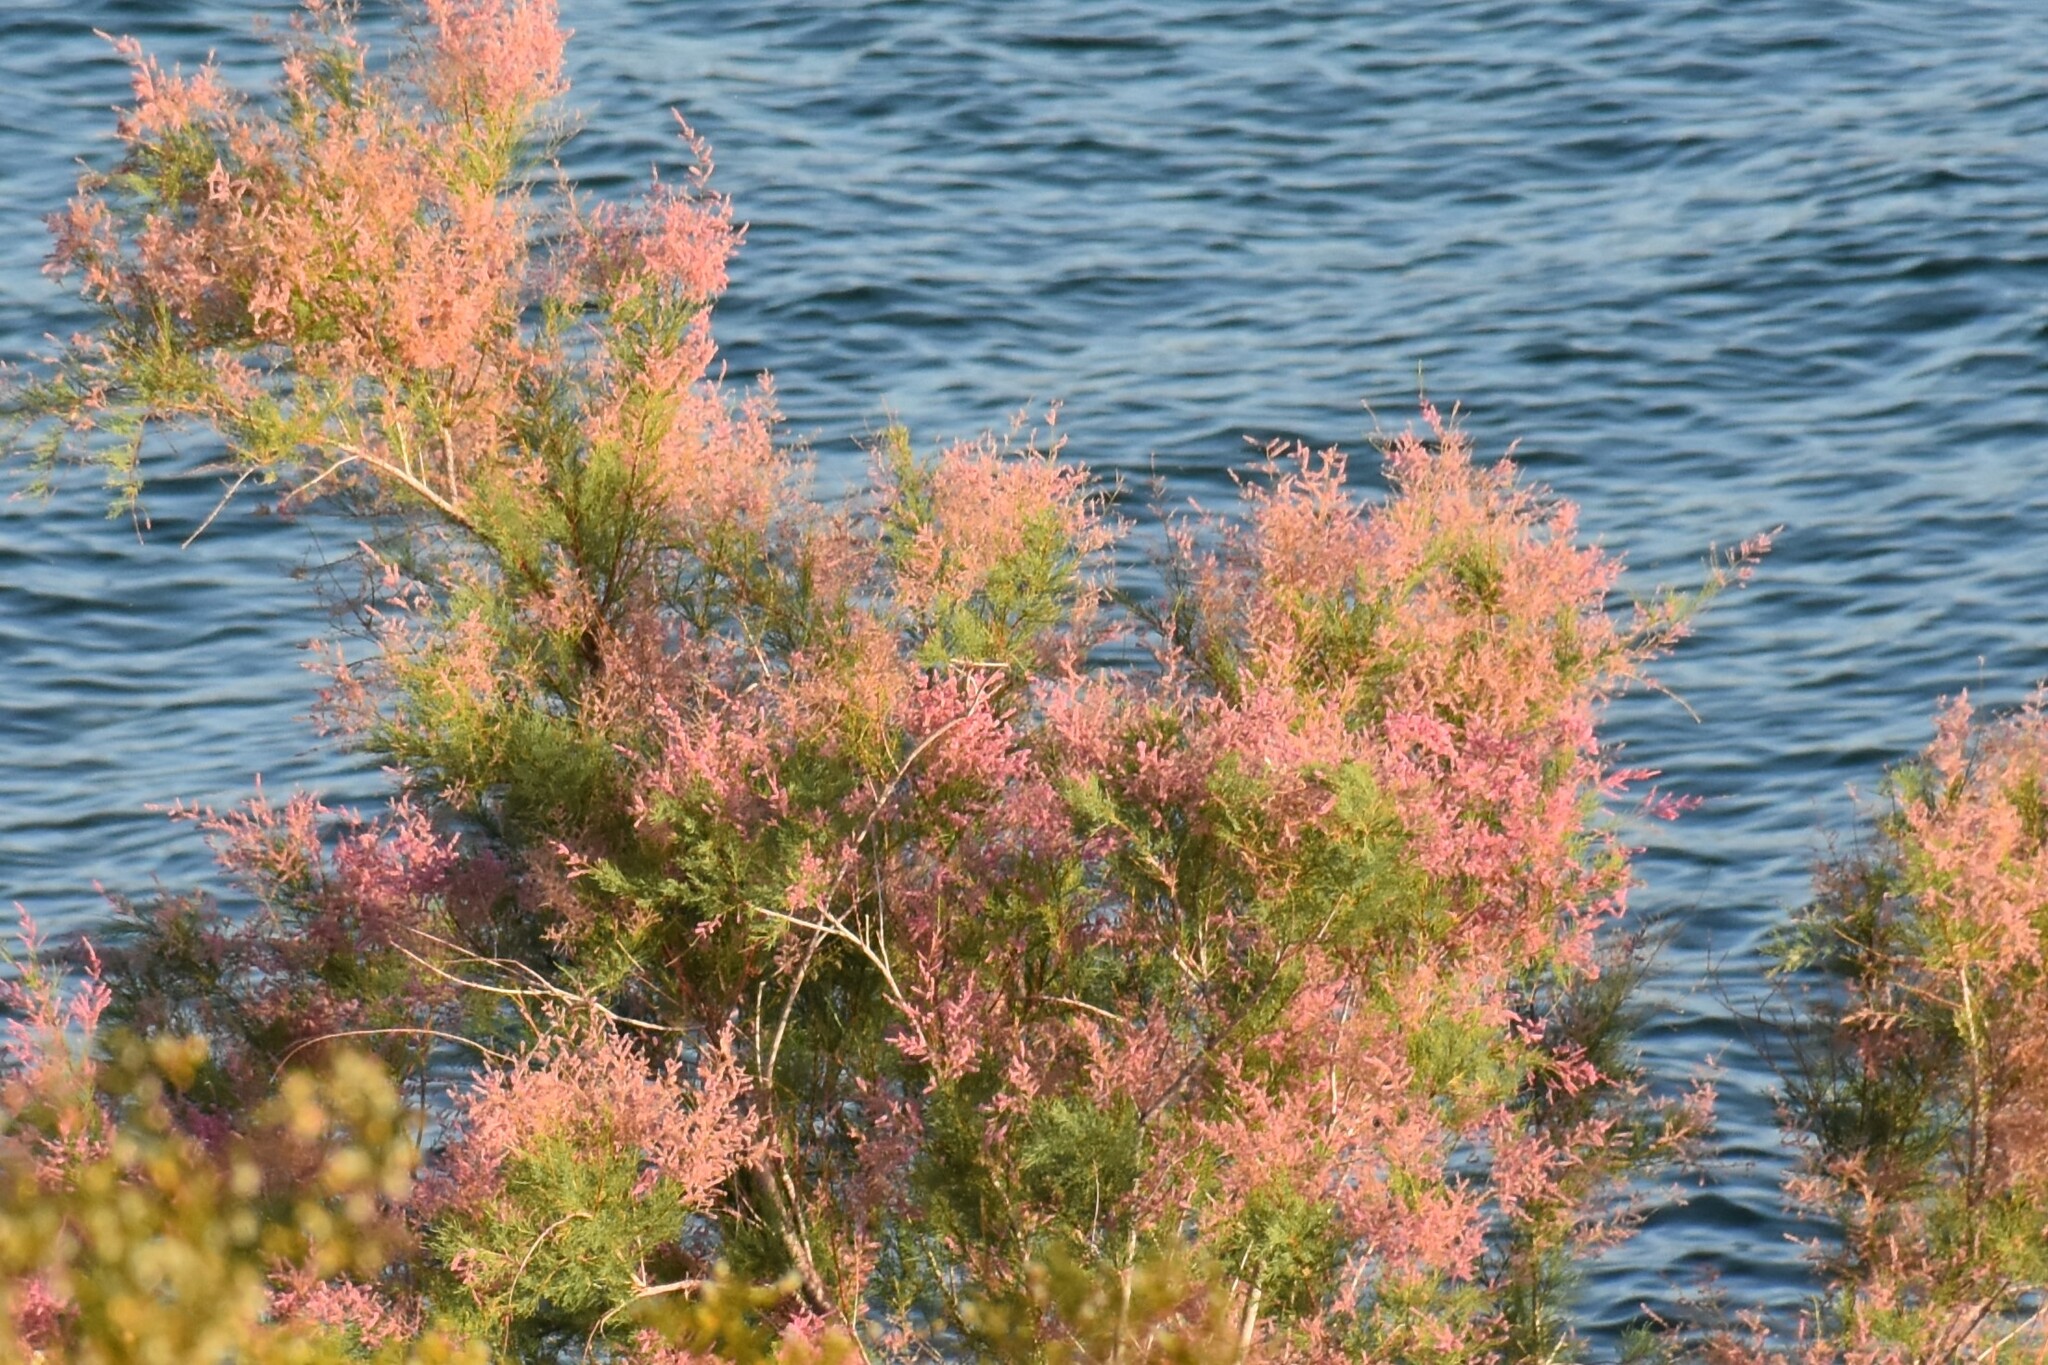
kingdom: Plantae
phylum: Tracheophyta
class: Magnoliopsida
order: Caryophyllales
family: Tamaricaceae
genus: Tamarix
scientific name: Tamarix
